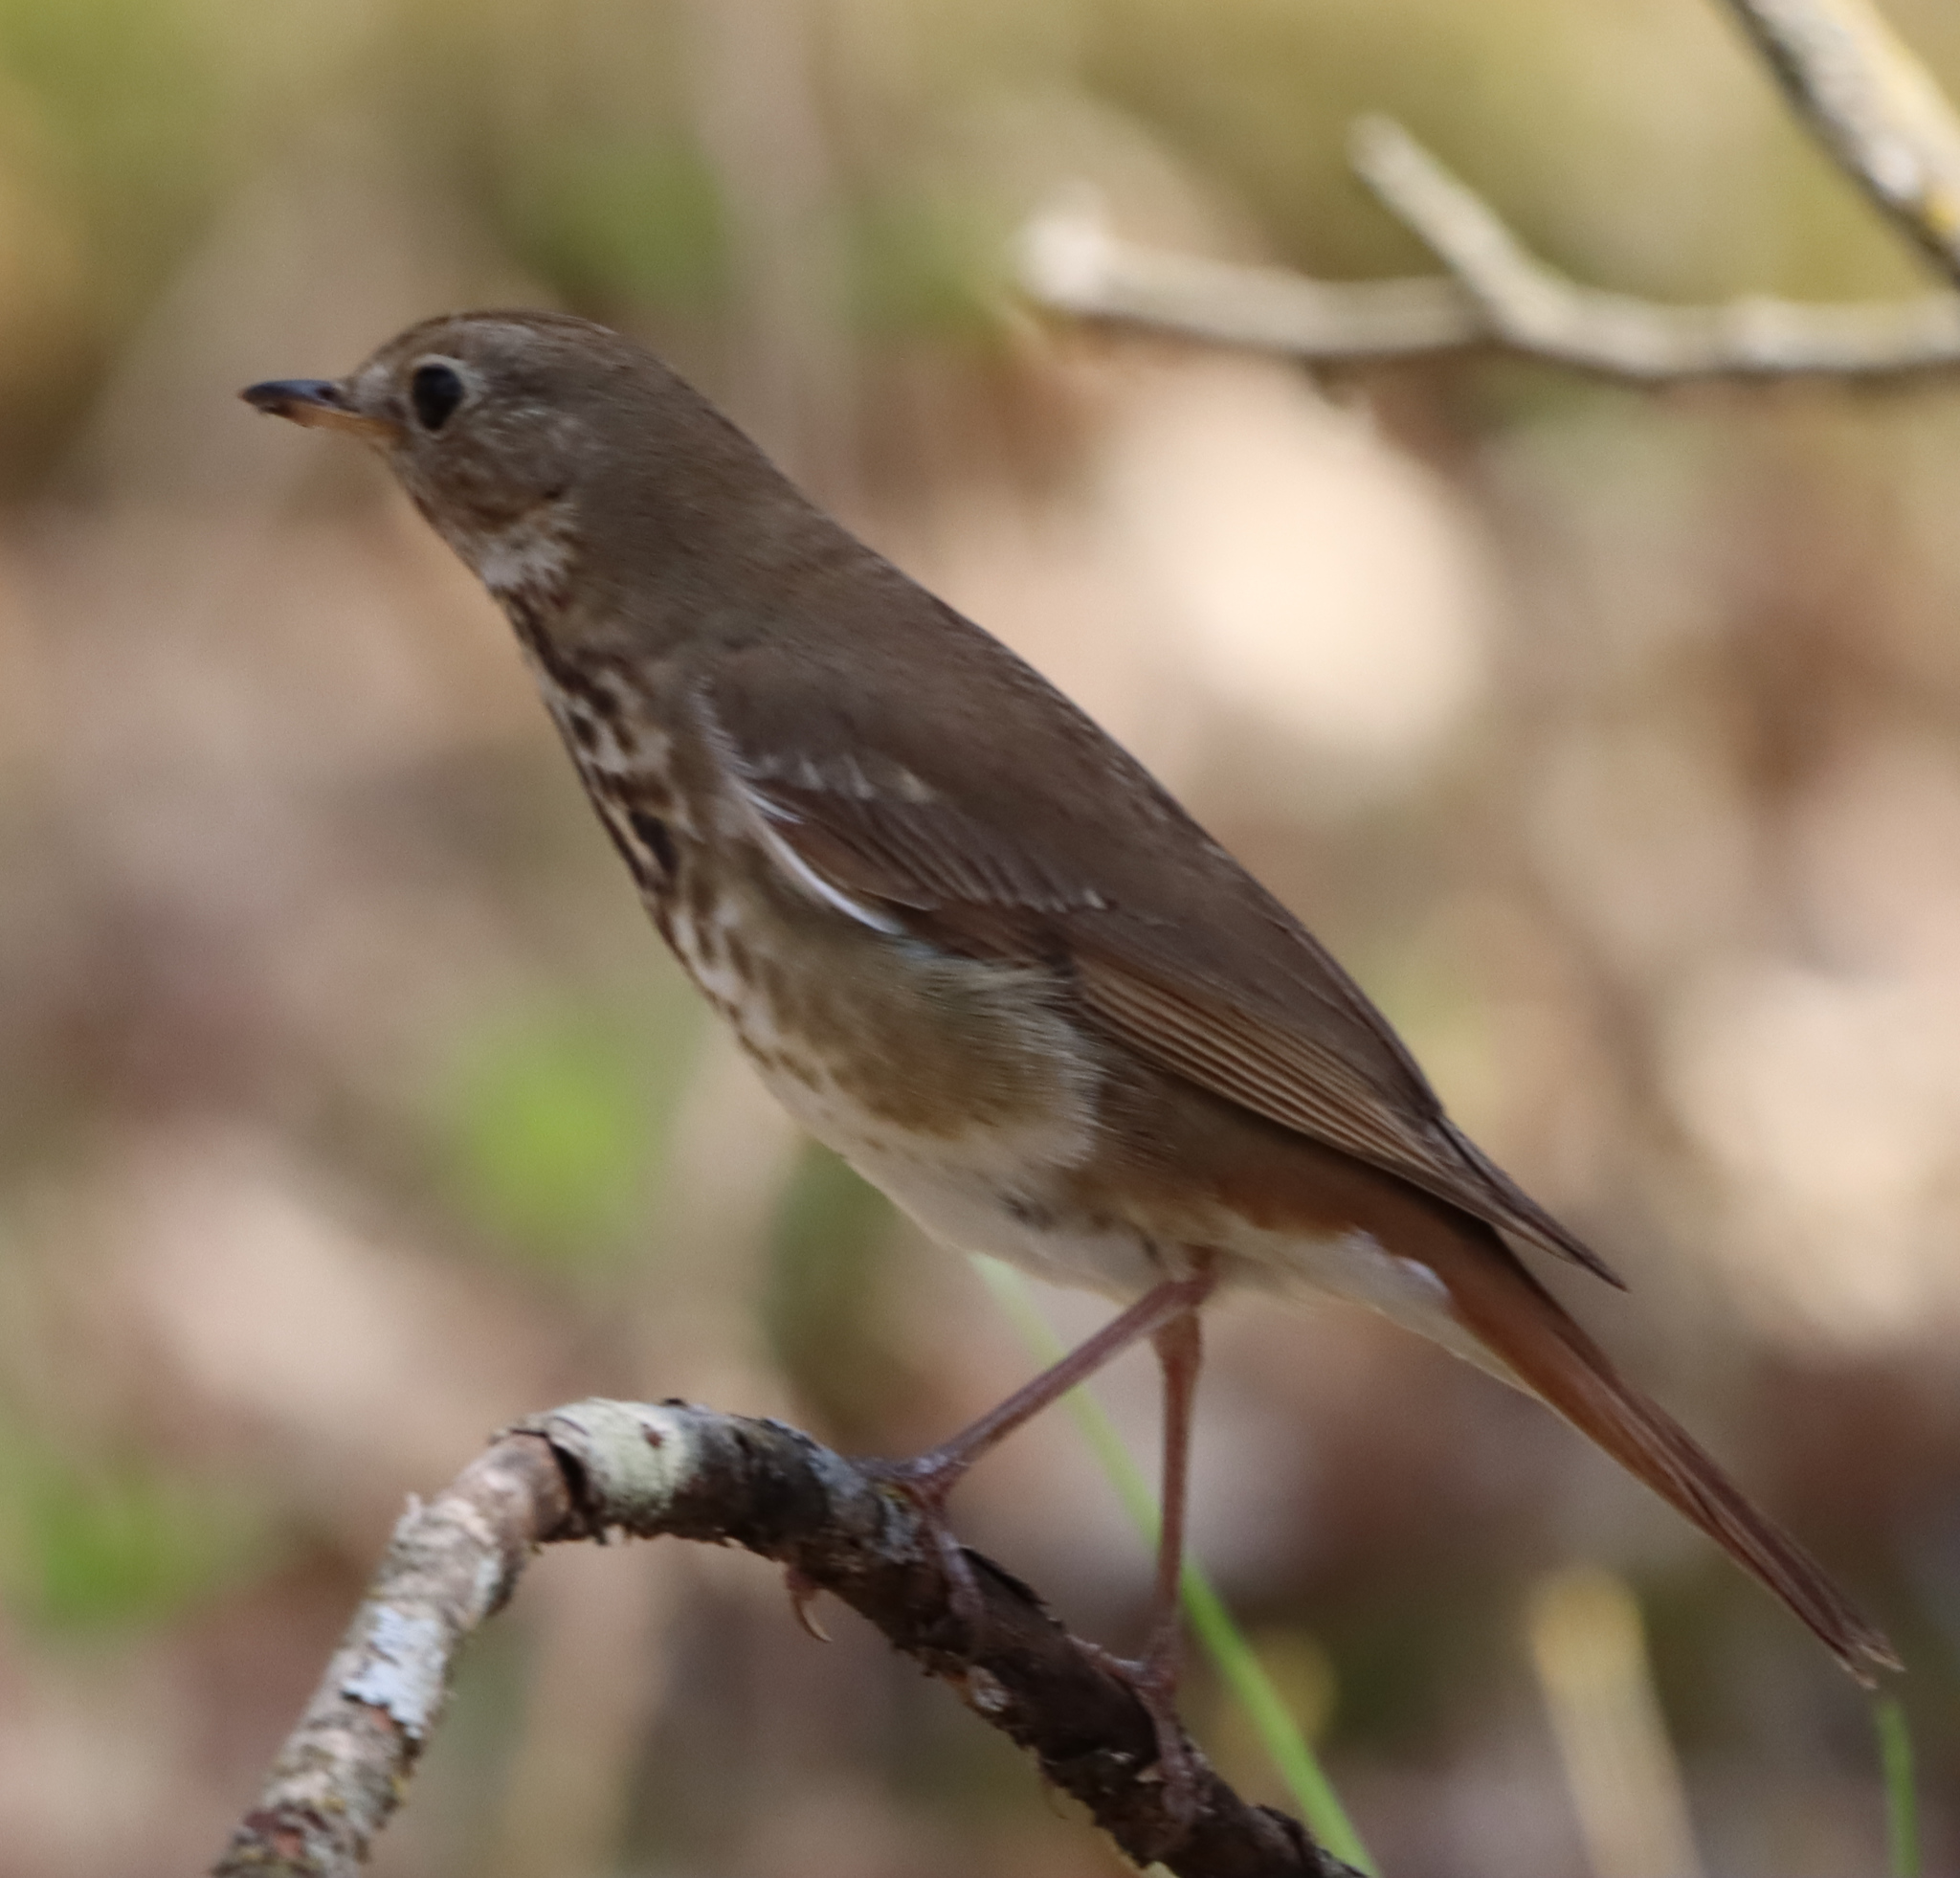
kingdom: Animalia
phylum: Chordata
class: Aves
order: Passeriformes
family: Turdidae
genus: Catharus
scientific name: Catharus guttatus
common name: Hermit thrush
